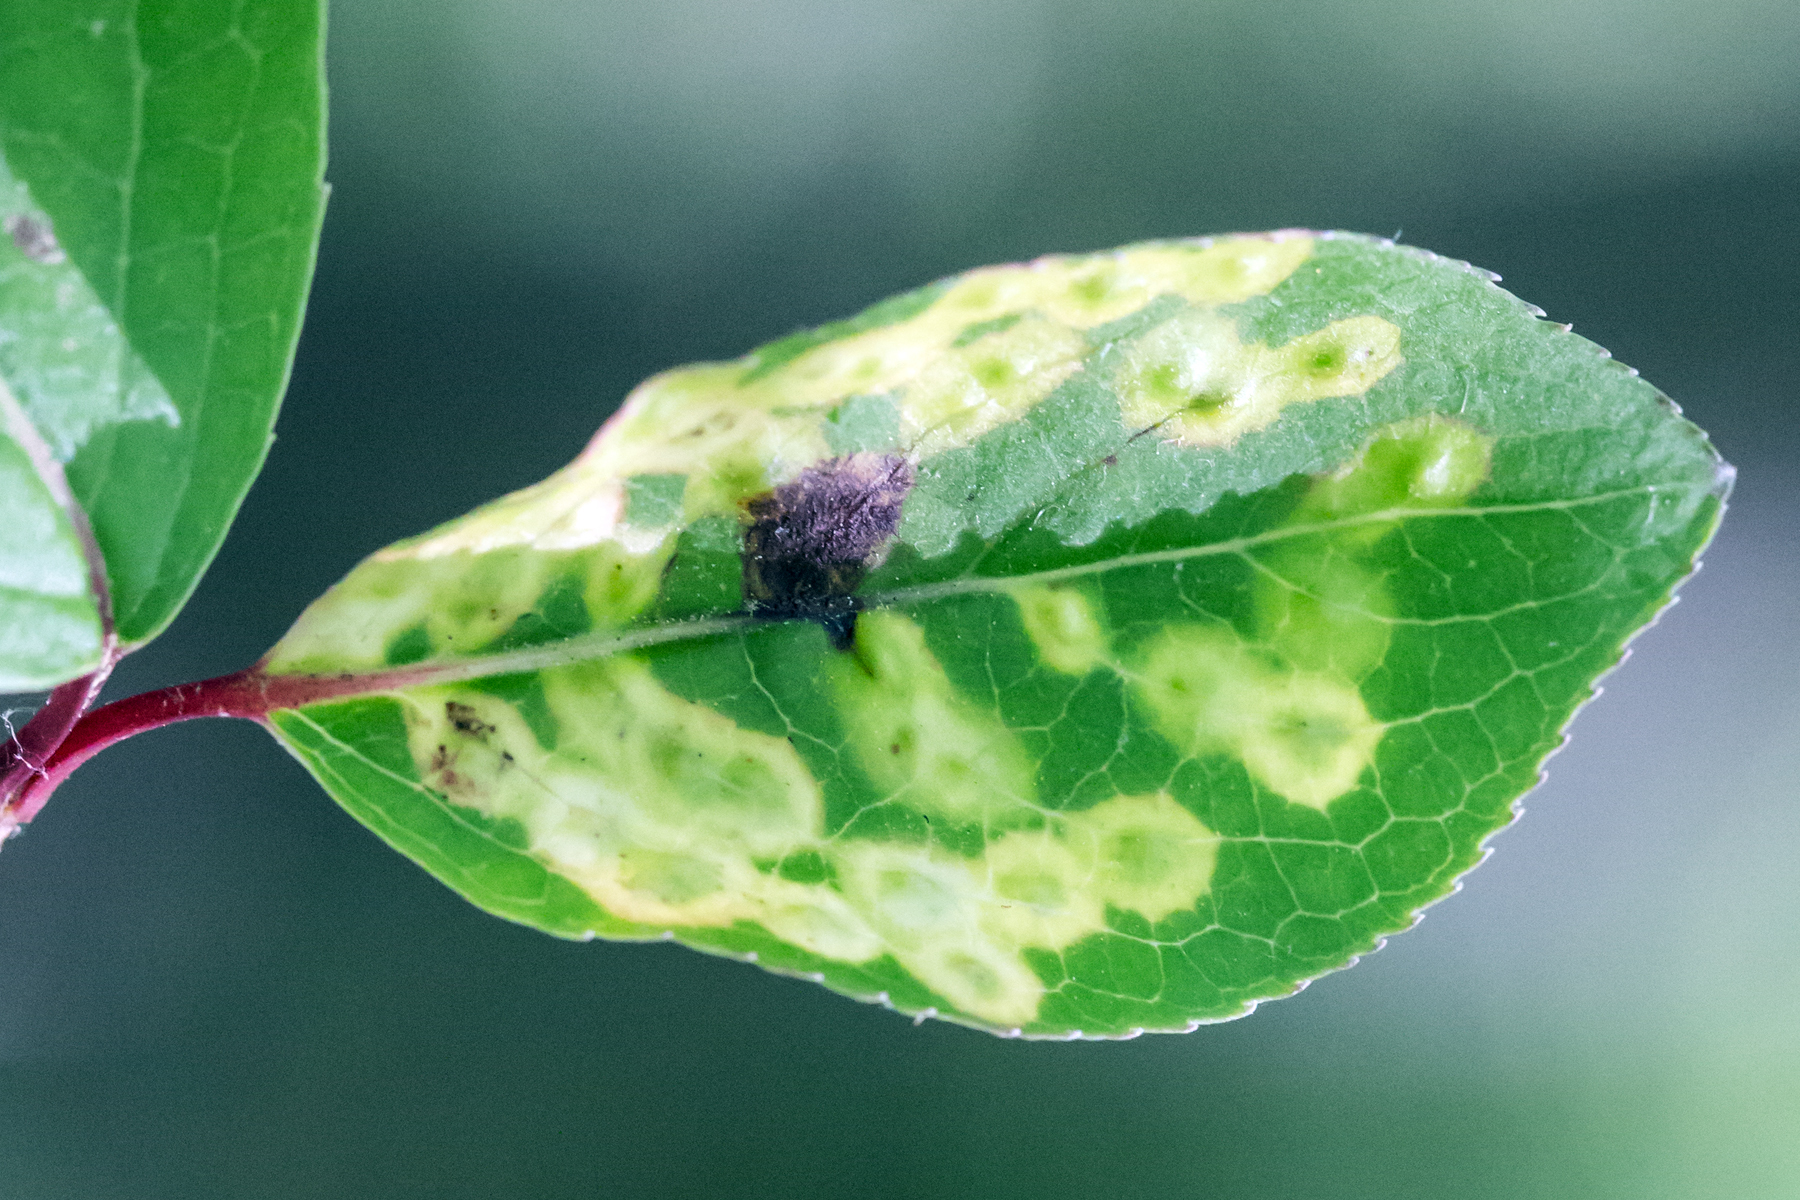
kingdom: Animalia
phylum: Arthropoda
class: Insecta
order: Diptera
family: Cecidomyiidae
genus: Sackenomyia
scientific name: Sackenomyia commota
